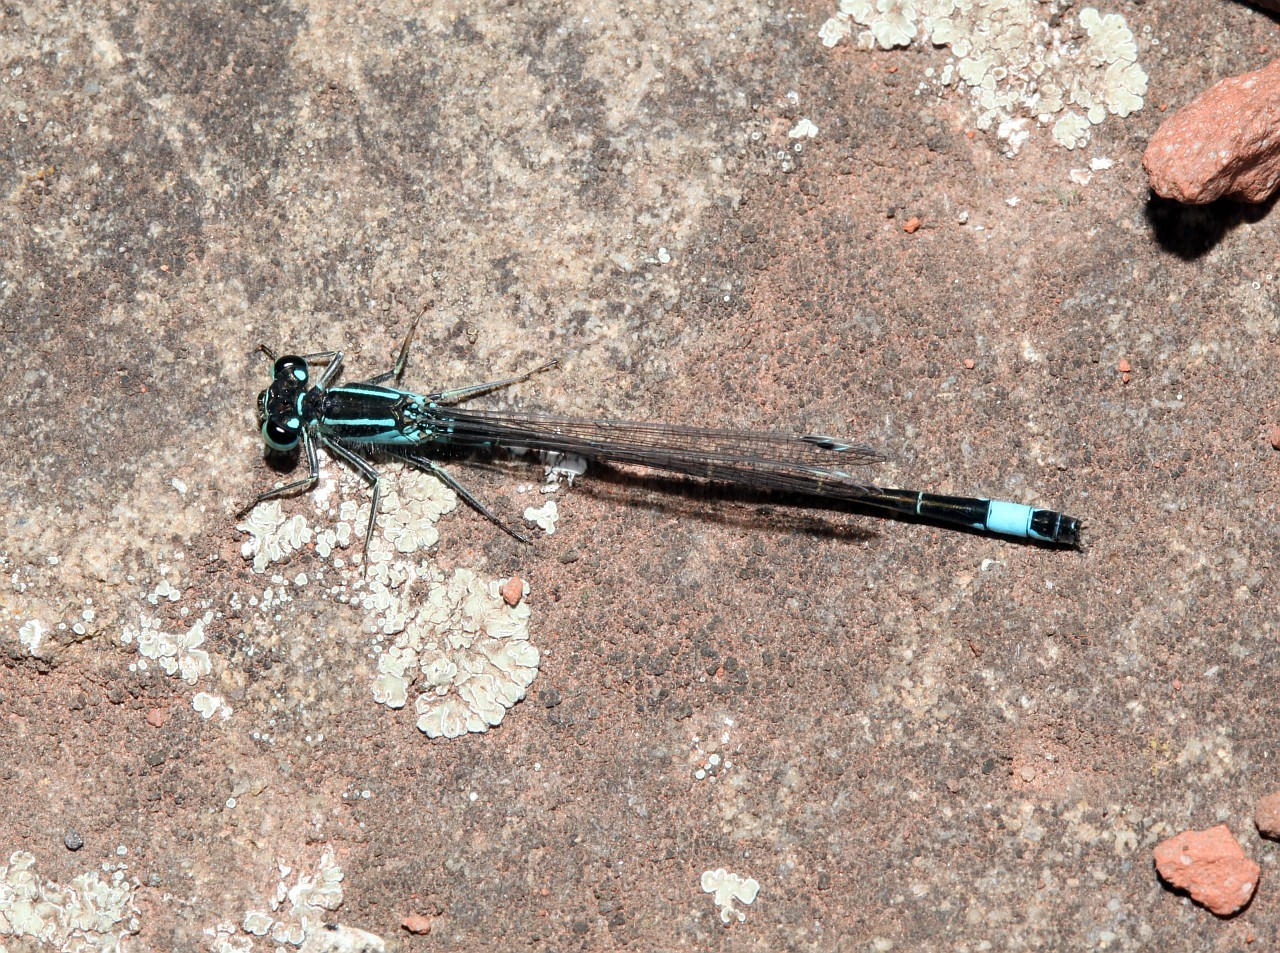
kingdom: Animalia
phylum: Arthropoda
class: Insecta
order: Odonata
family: Coenagrionidae
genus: Ischnura
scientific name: Ischnura elegans
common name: Blue-tailed damselfly
